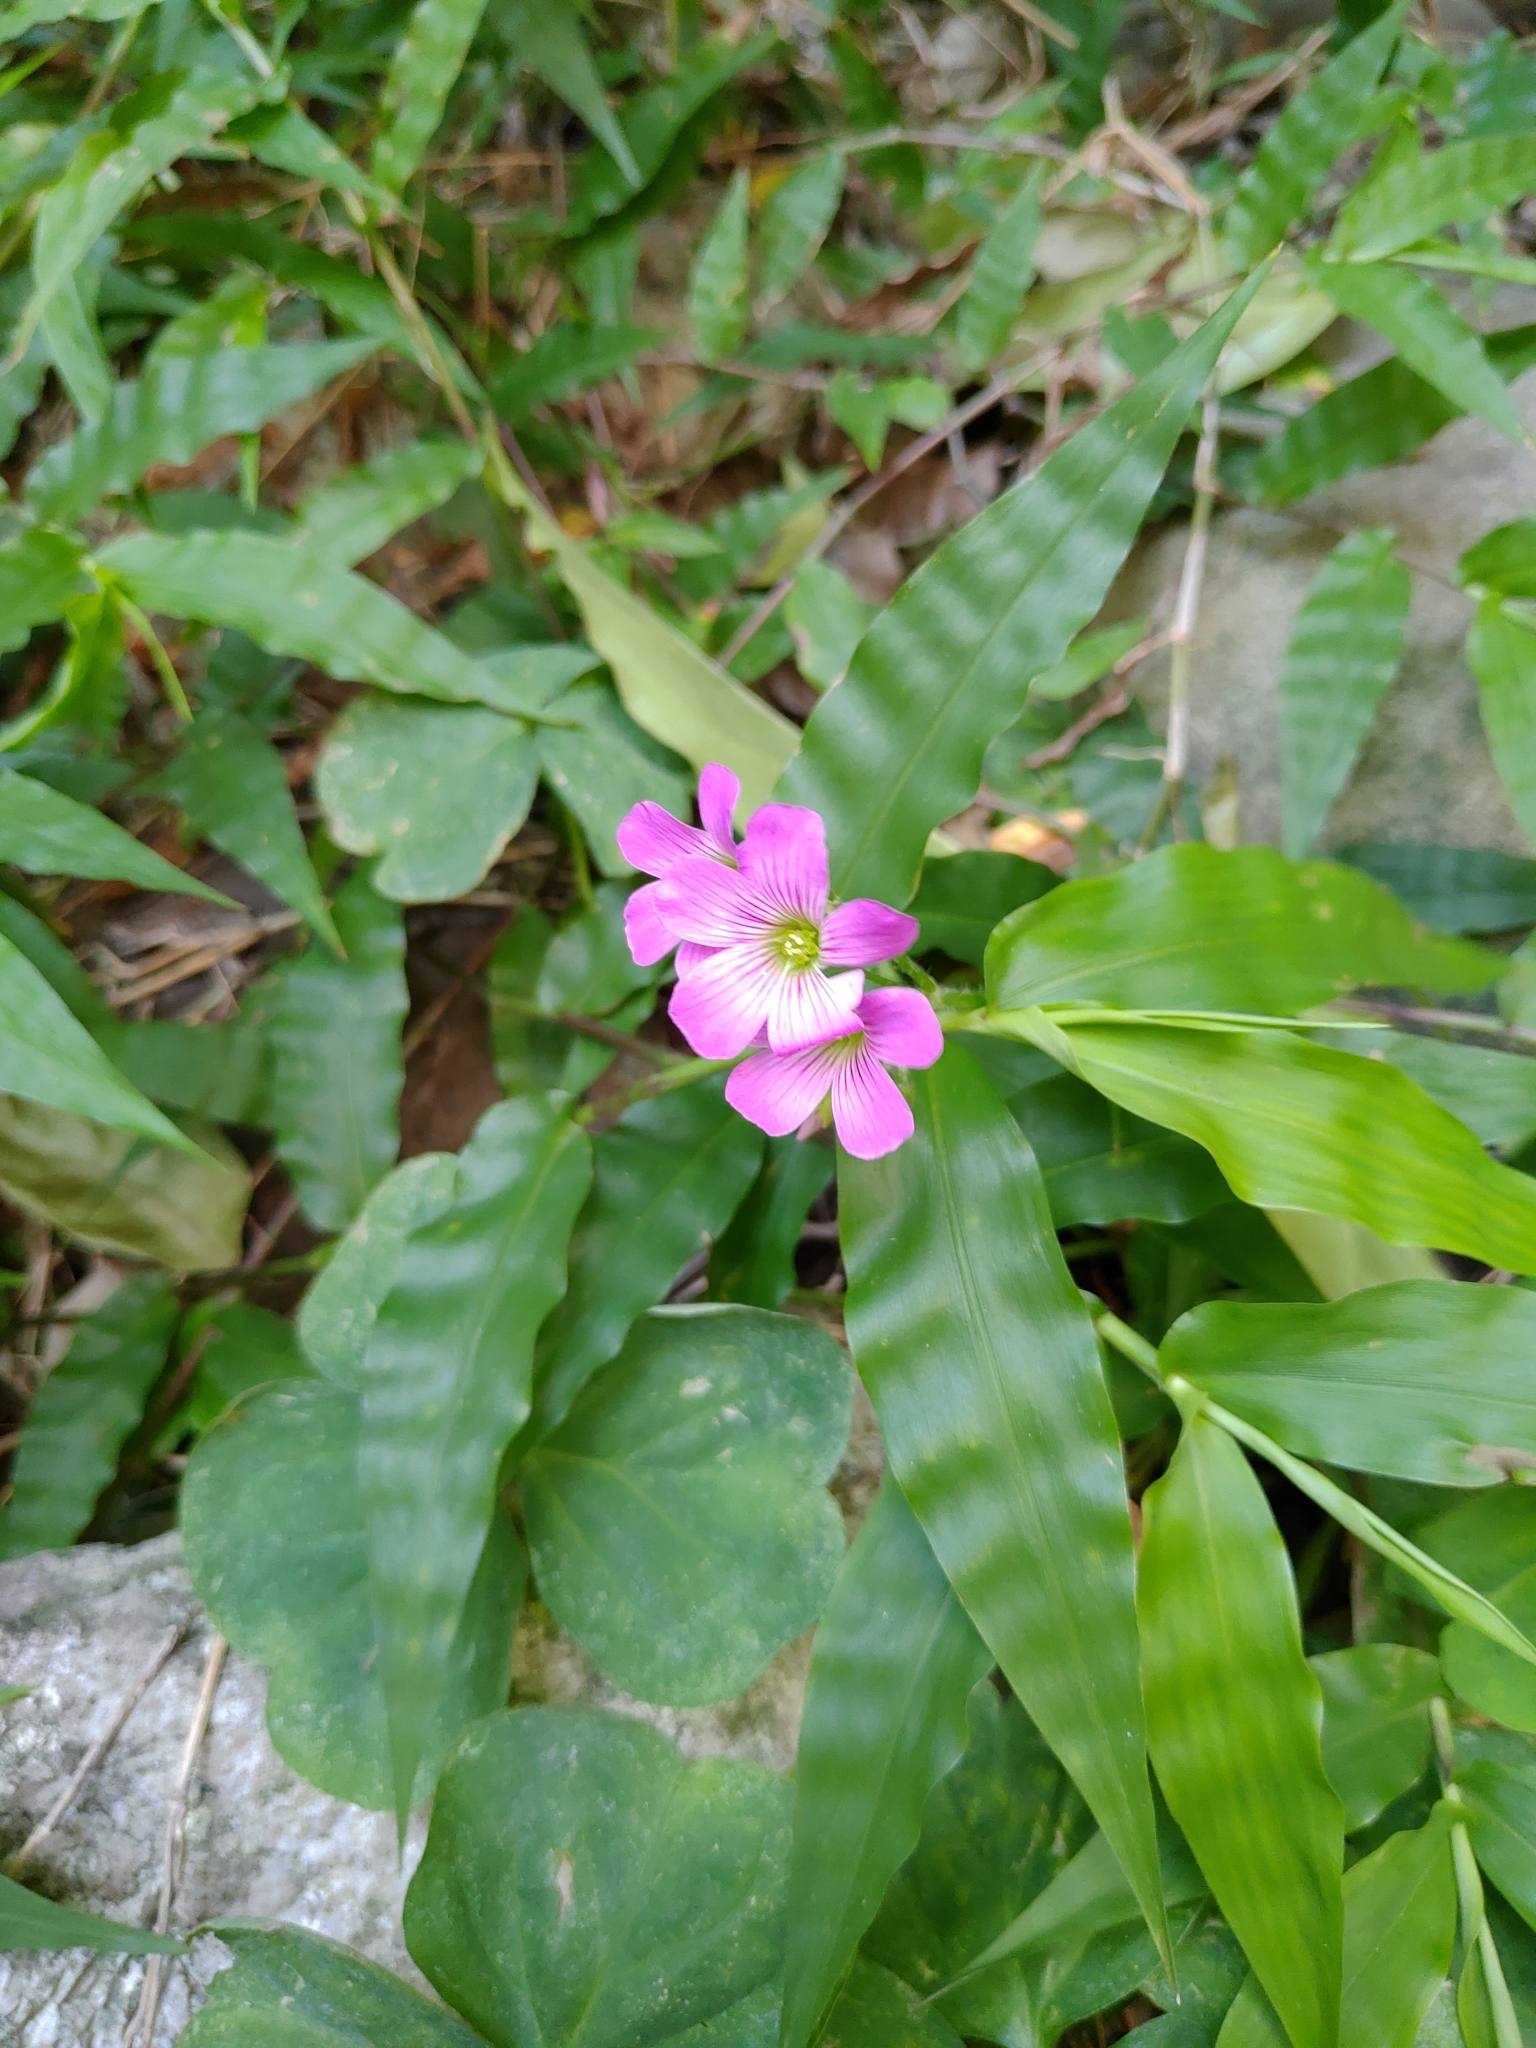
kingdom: Plantae
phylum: Tracheophyta
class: Magnoliopsida
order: Oxalidales
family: Oxalidaceae
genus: Oxalis
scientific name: Oxalis debilis
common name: Large-flowered pink-sorrel
